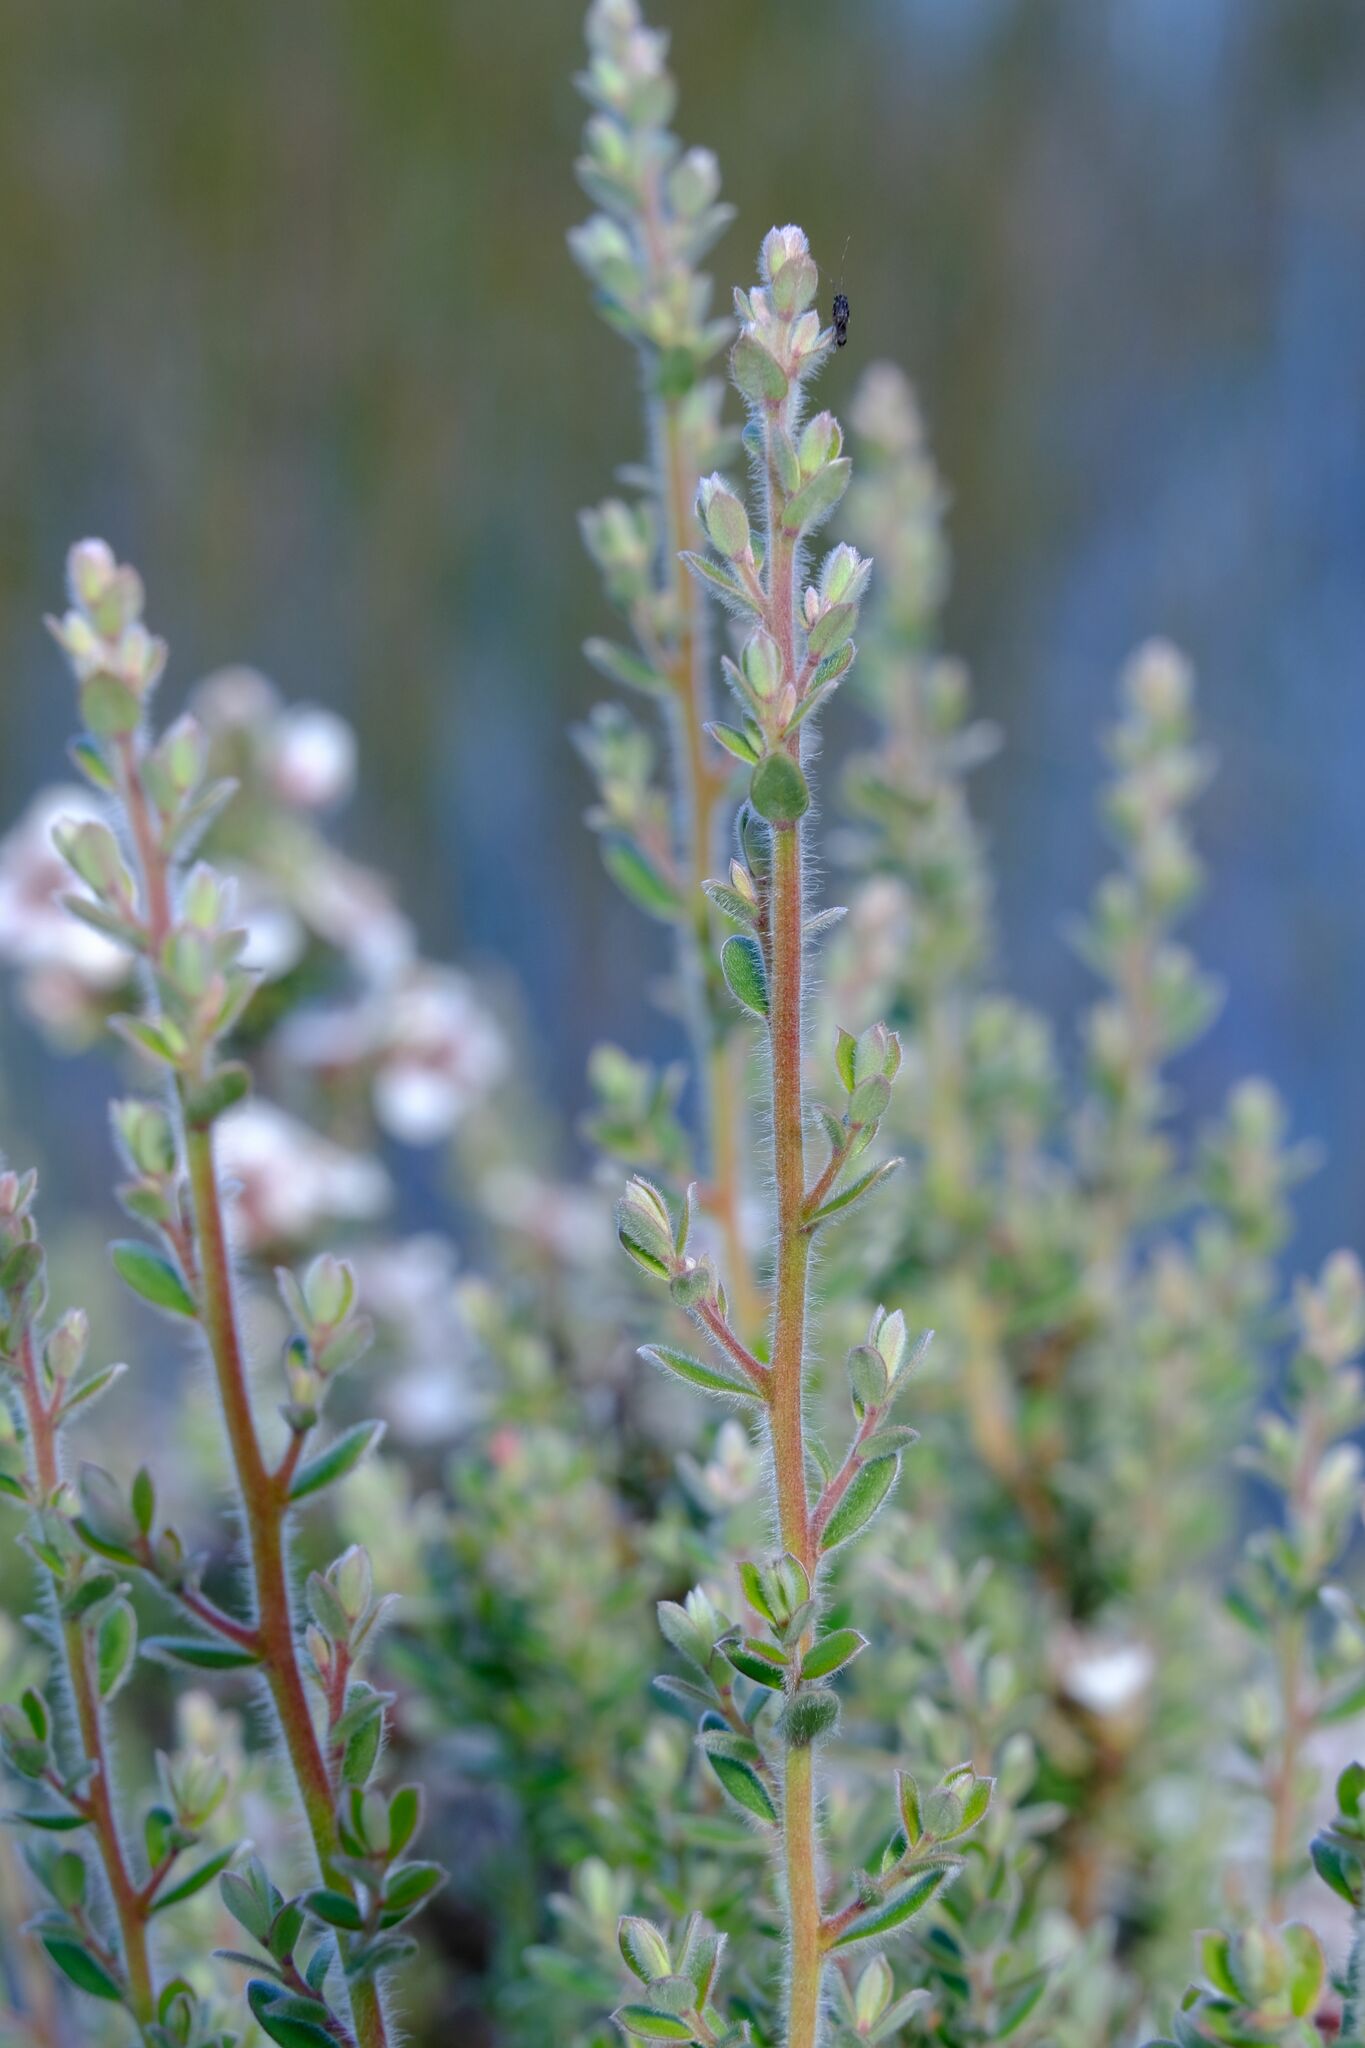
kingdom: Plantae
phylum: Tracheophyta
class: Magnoliopsida
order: Myrtales
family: Myrtaceae
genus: Leptospermum
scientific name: Leptospermum lanigerum
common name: Woolly tea-tree
